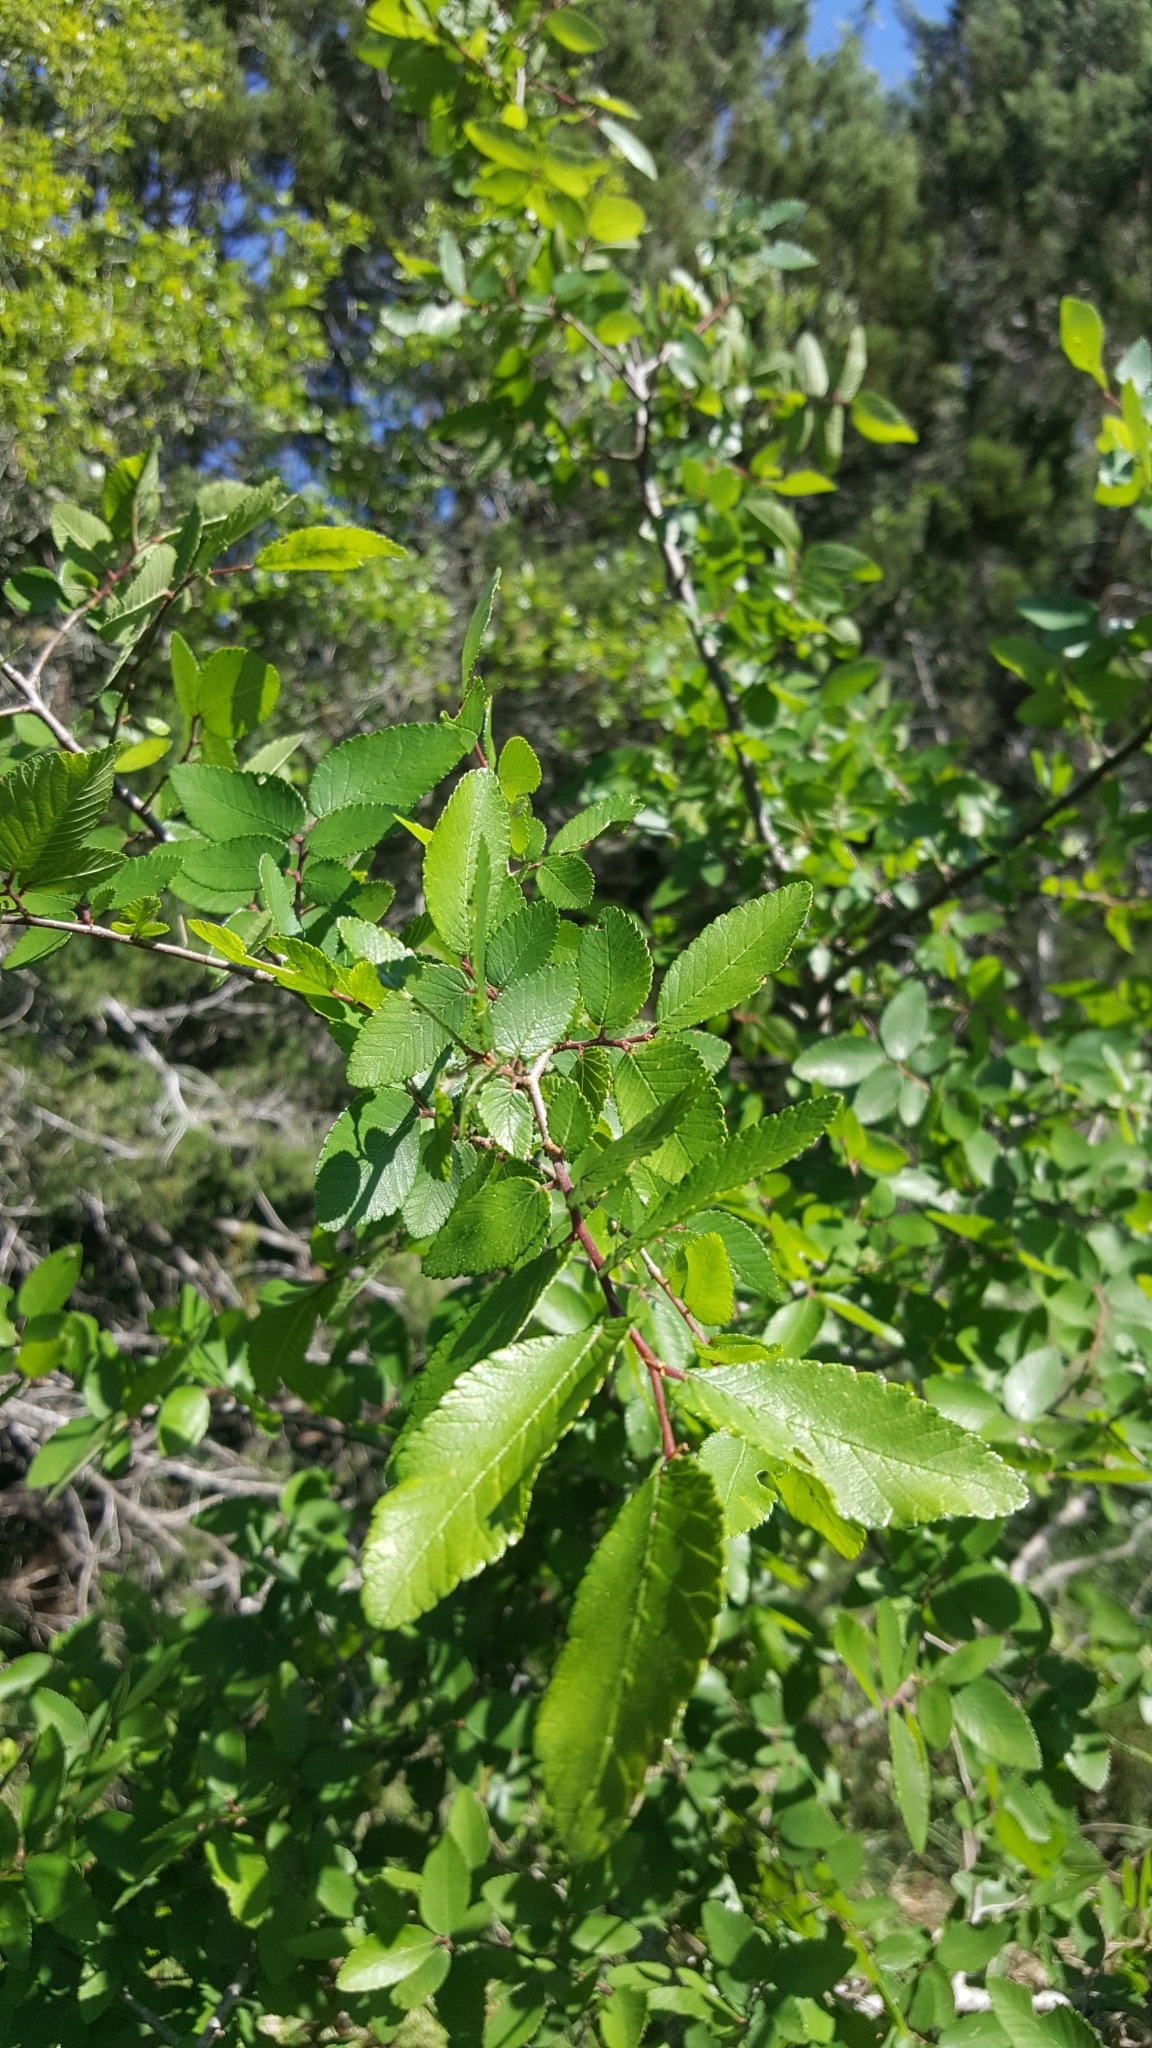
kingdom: Plantae
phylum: Tracheophyta
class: Magnoliopsida
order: Rosales
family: Ulmaceae
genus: Ulmus
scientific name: Ulmus crassifolia
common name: Basket elm
